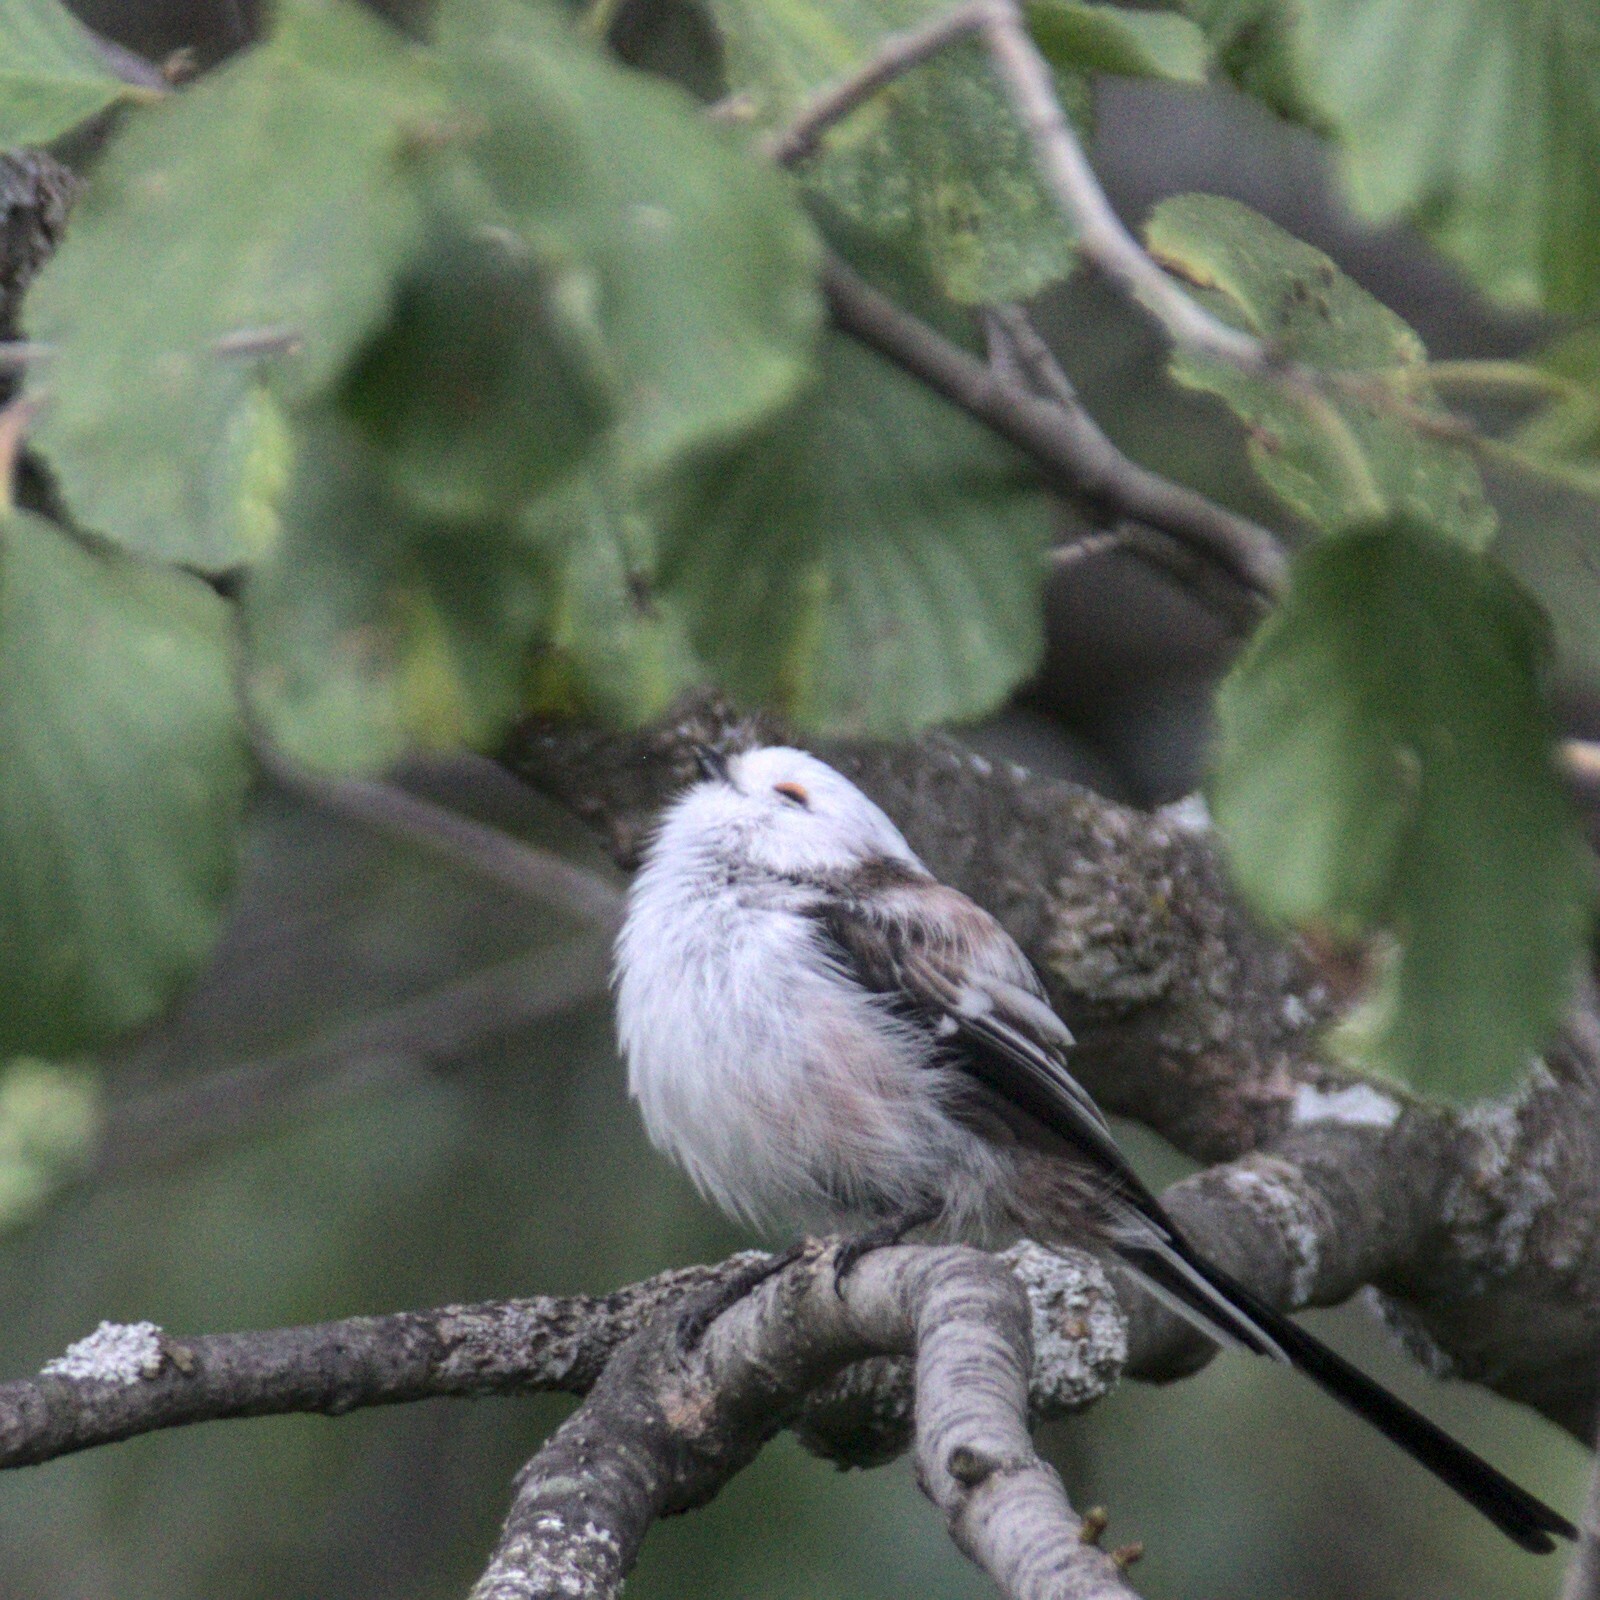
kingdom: Animalia
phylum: Chordata
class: Aves
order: Passeriformes
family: Aegithalidae
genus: Aegithalos
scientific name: Aegithalos caudatus
